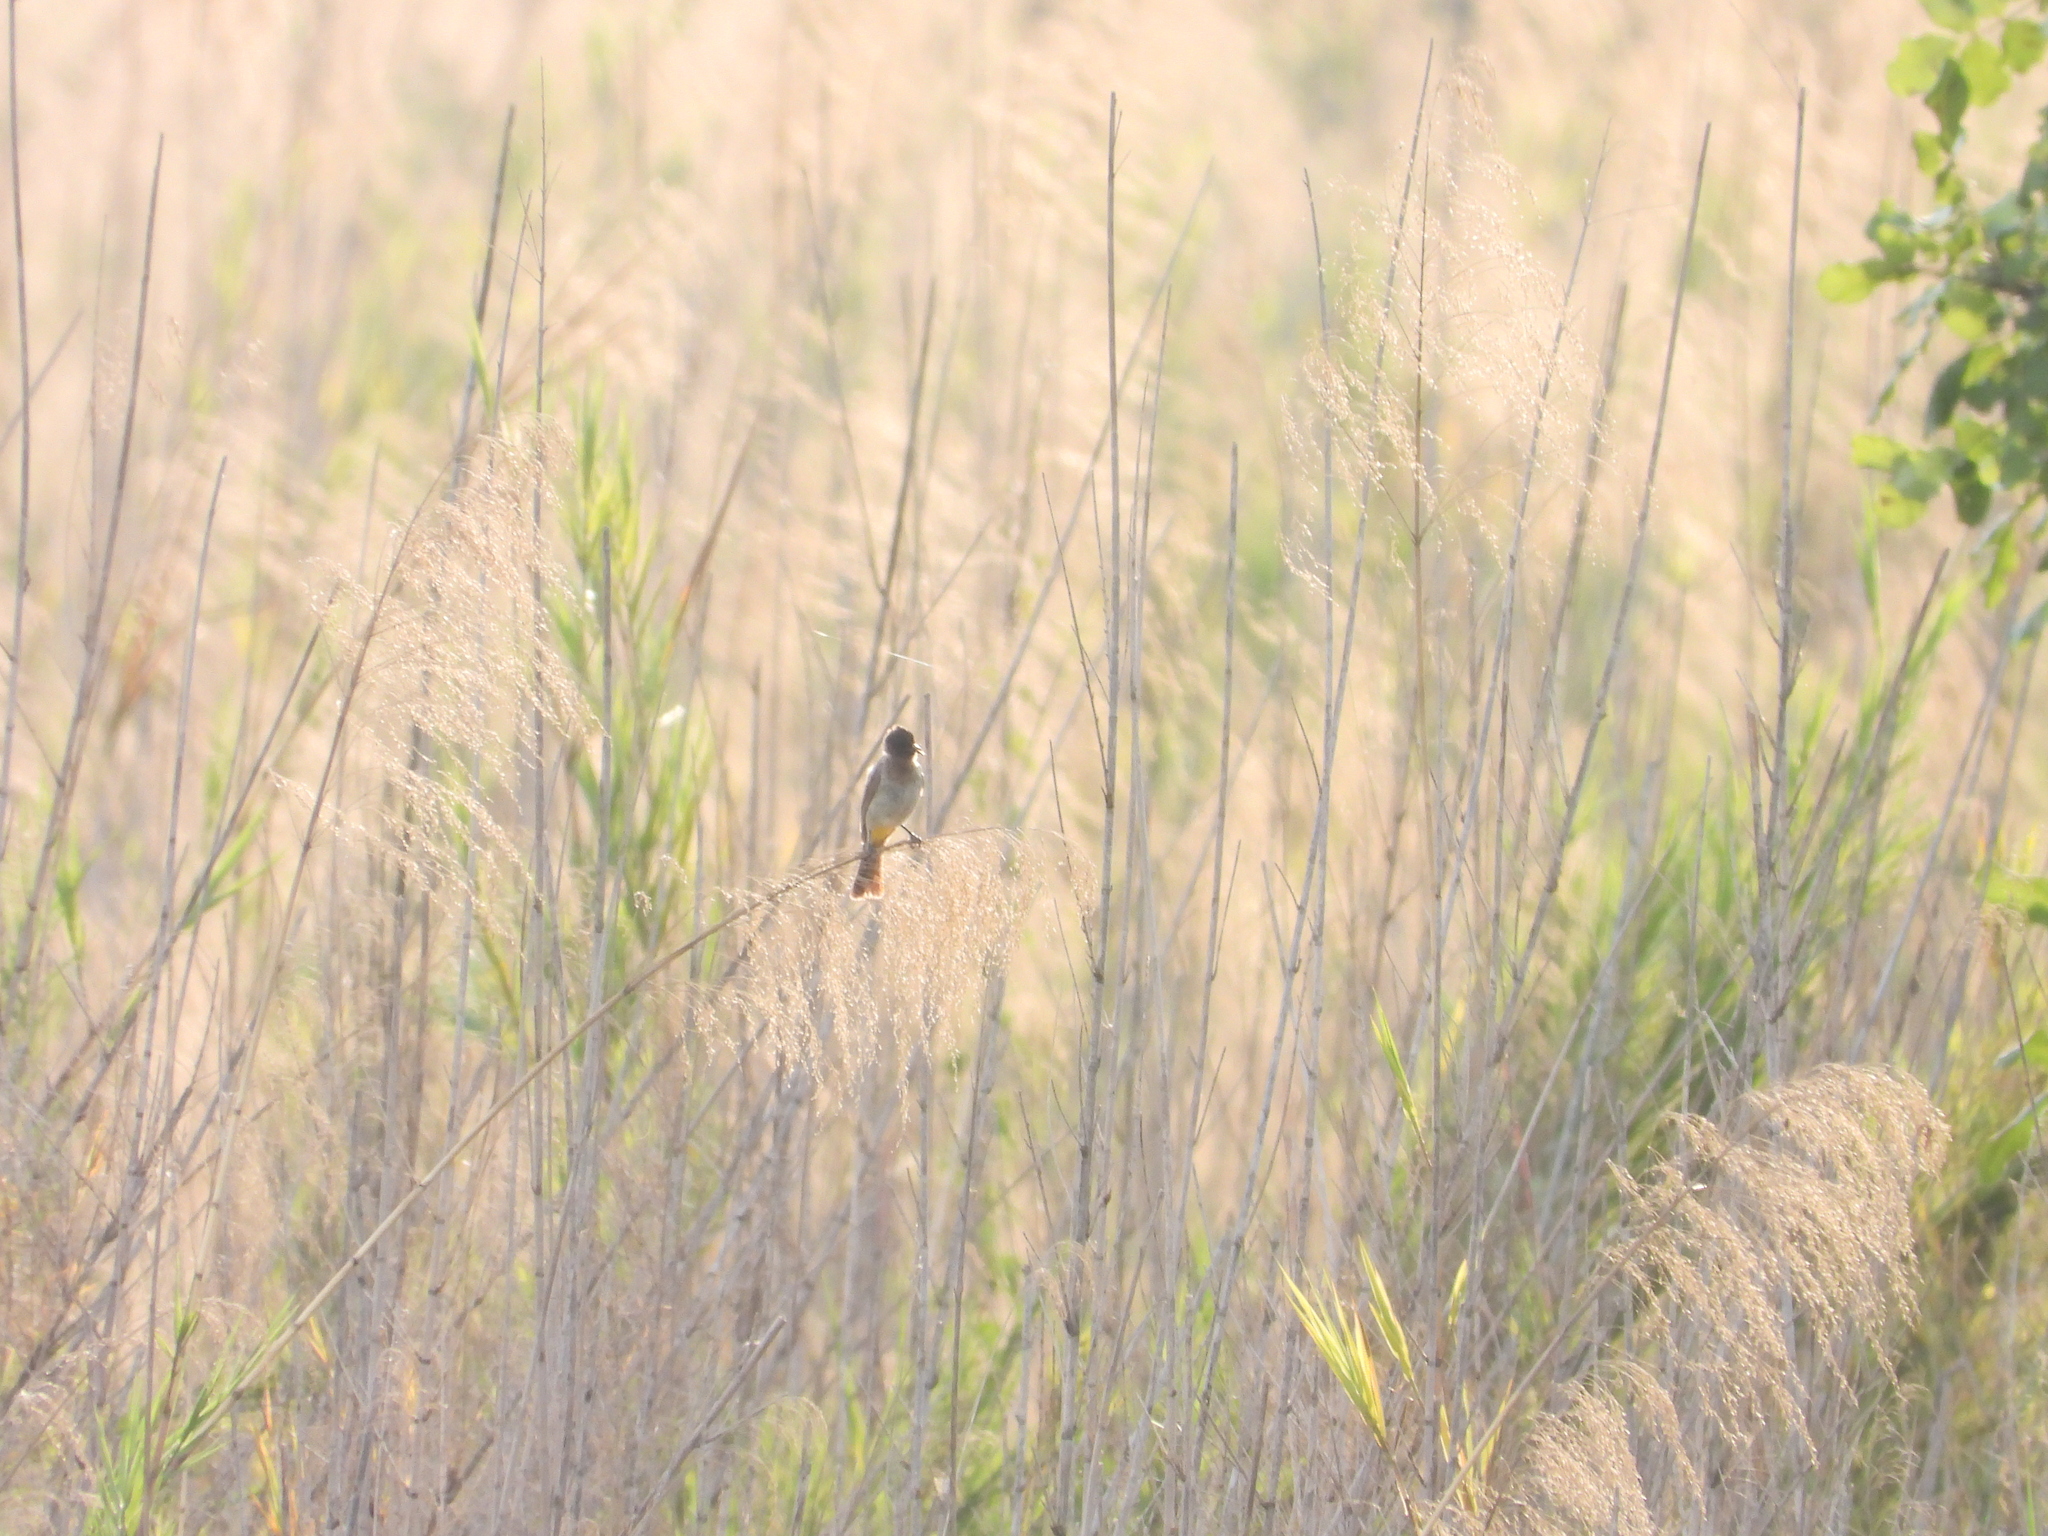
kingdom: Animalia
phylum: Chordata
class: Aves
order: Passeriformes
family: Pycnonotidae
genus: Pycnonotus
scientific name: Pycnonotus barbatus
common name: Common bulbul
